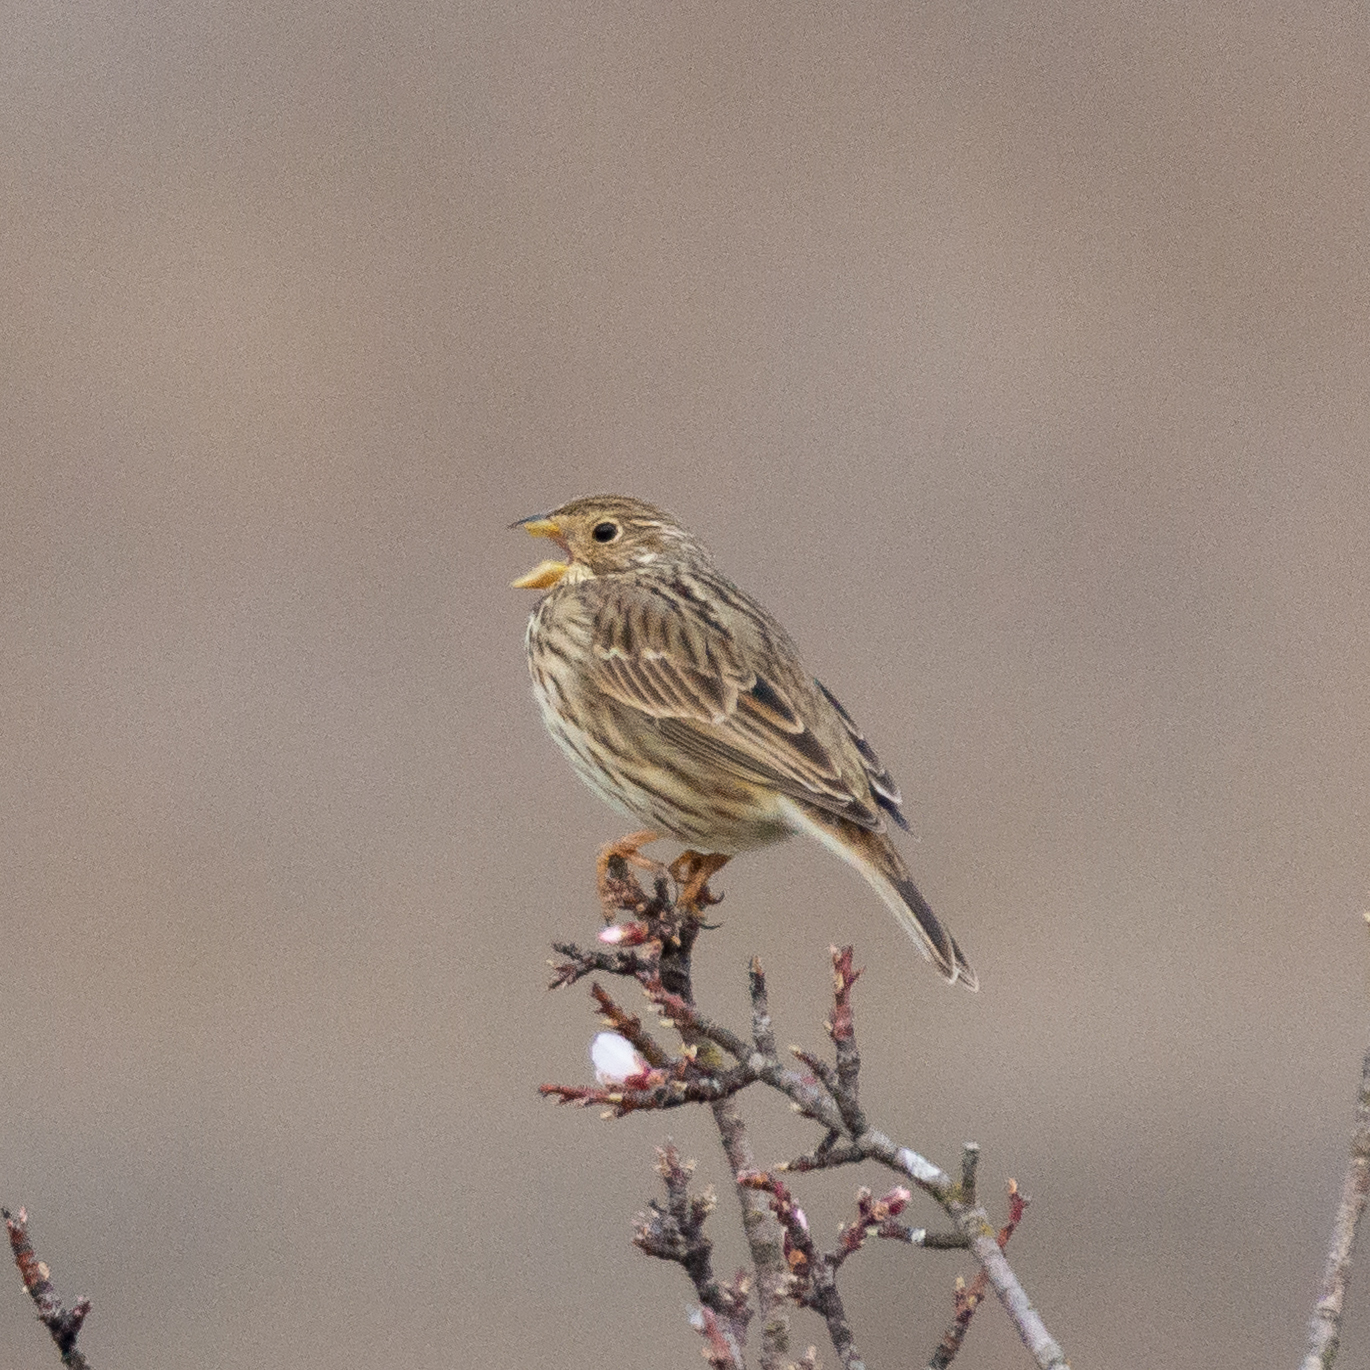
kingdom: Animalia
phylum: Chordata
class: Aves
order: Passeriformes
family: Emberizidae
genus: Emberiza
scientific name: Emberiza calandra
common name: Corn bunting
